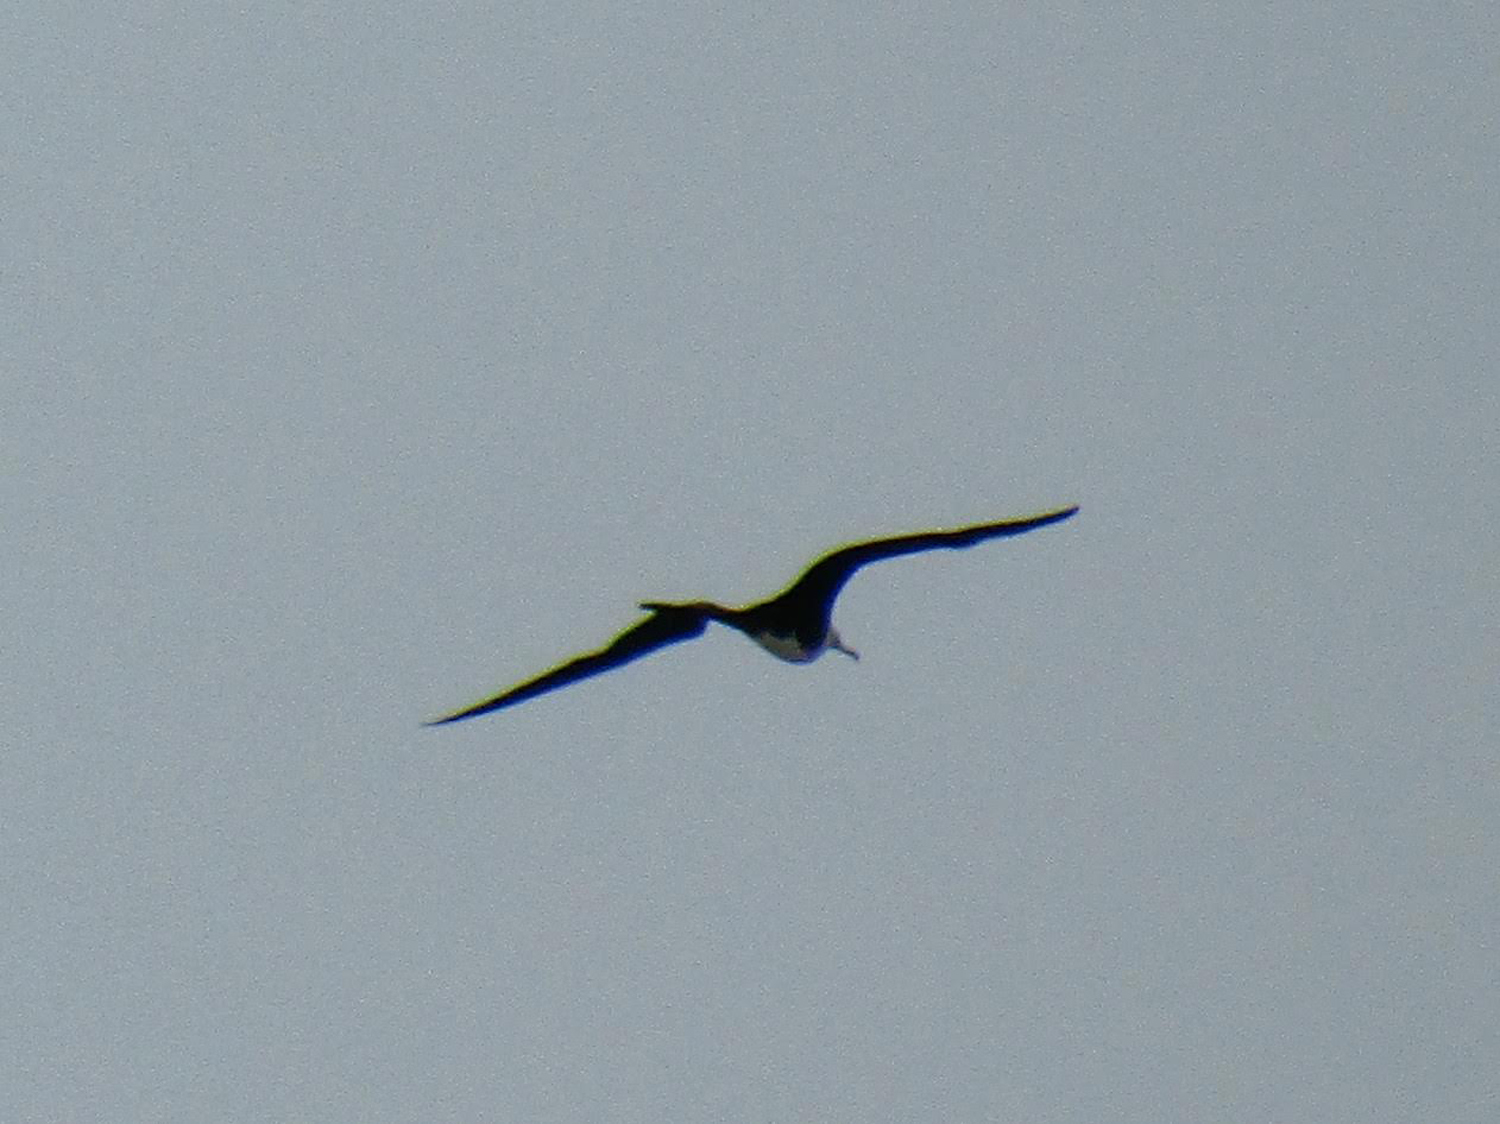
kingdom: Animalia
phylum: Chordata
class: Aves
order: Suliformes
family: Fregatidae
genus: Fregata
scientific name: Fregata magnificens
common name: Magnificent frigatebird
